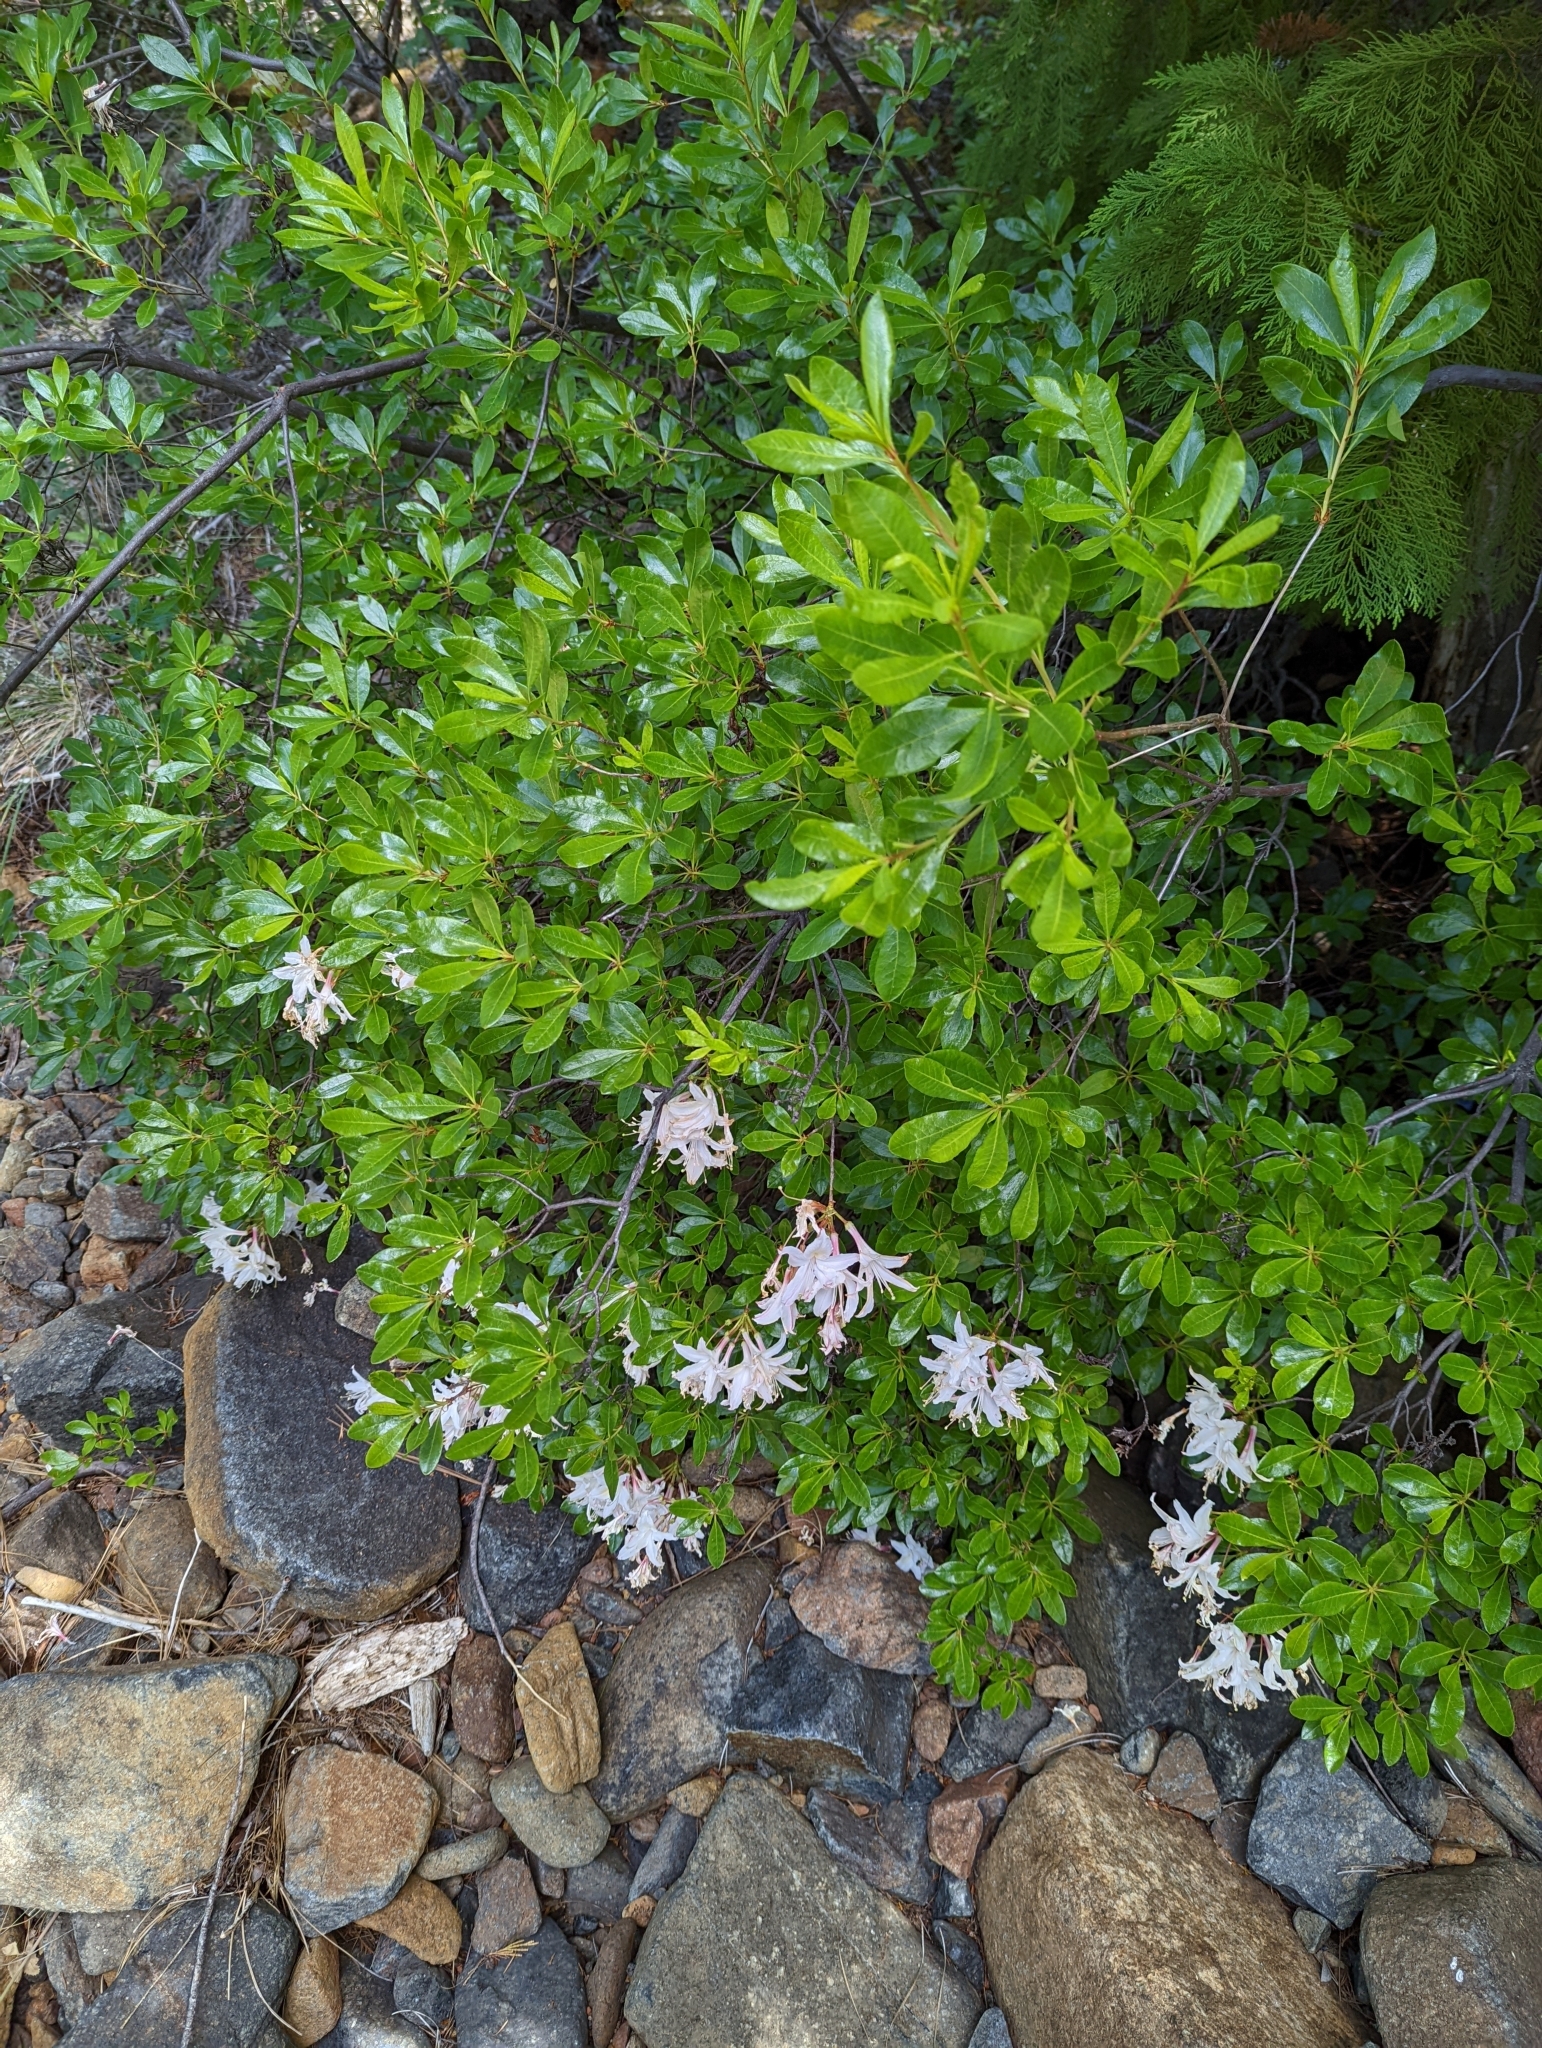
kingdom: Plantae
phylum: Tracheophyta
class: Magnoliopsida
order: Ericales
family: Ericaceae
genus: Rhododendron
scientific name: Rhododendron occidentale
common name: Western azalea
